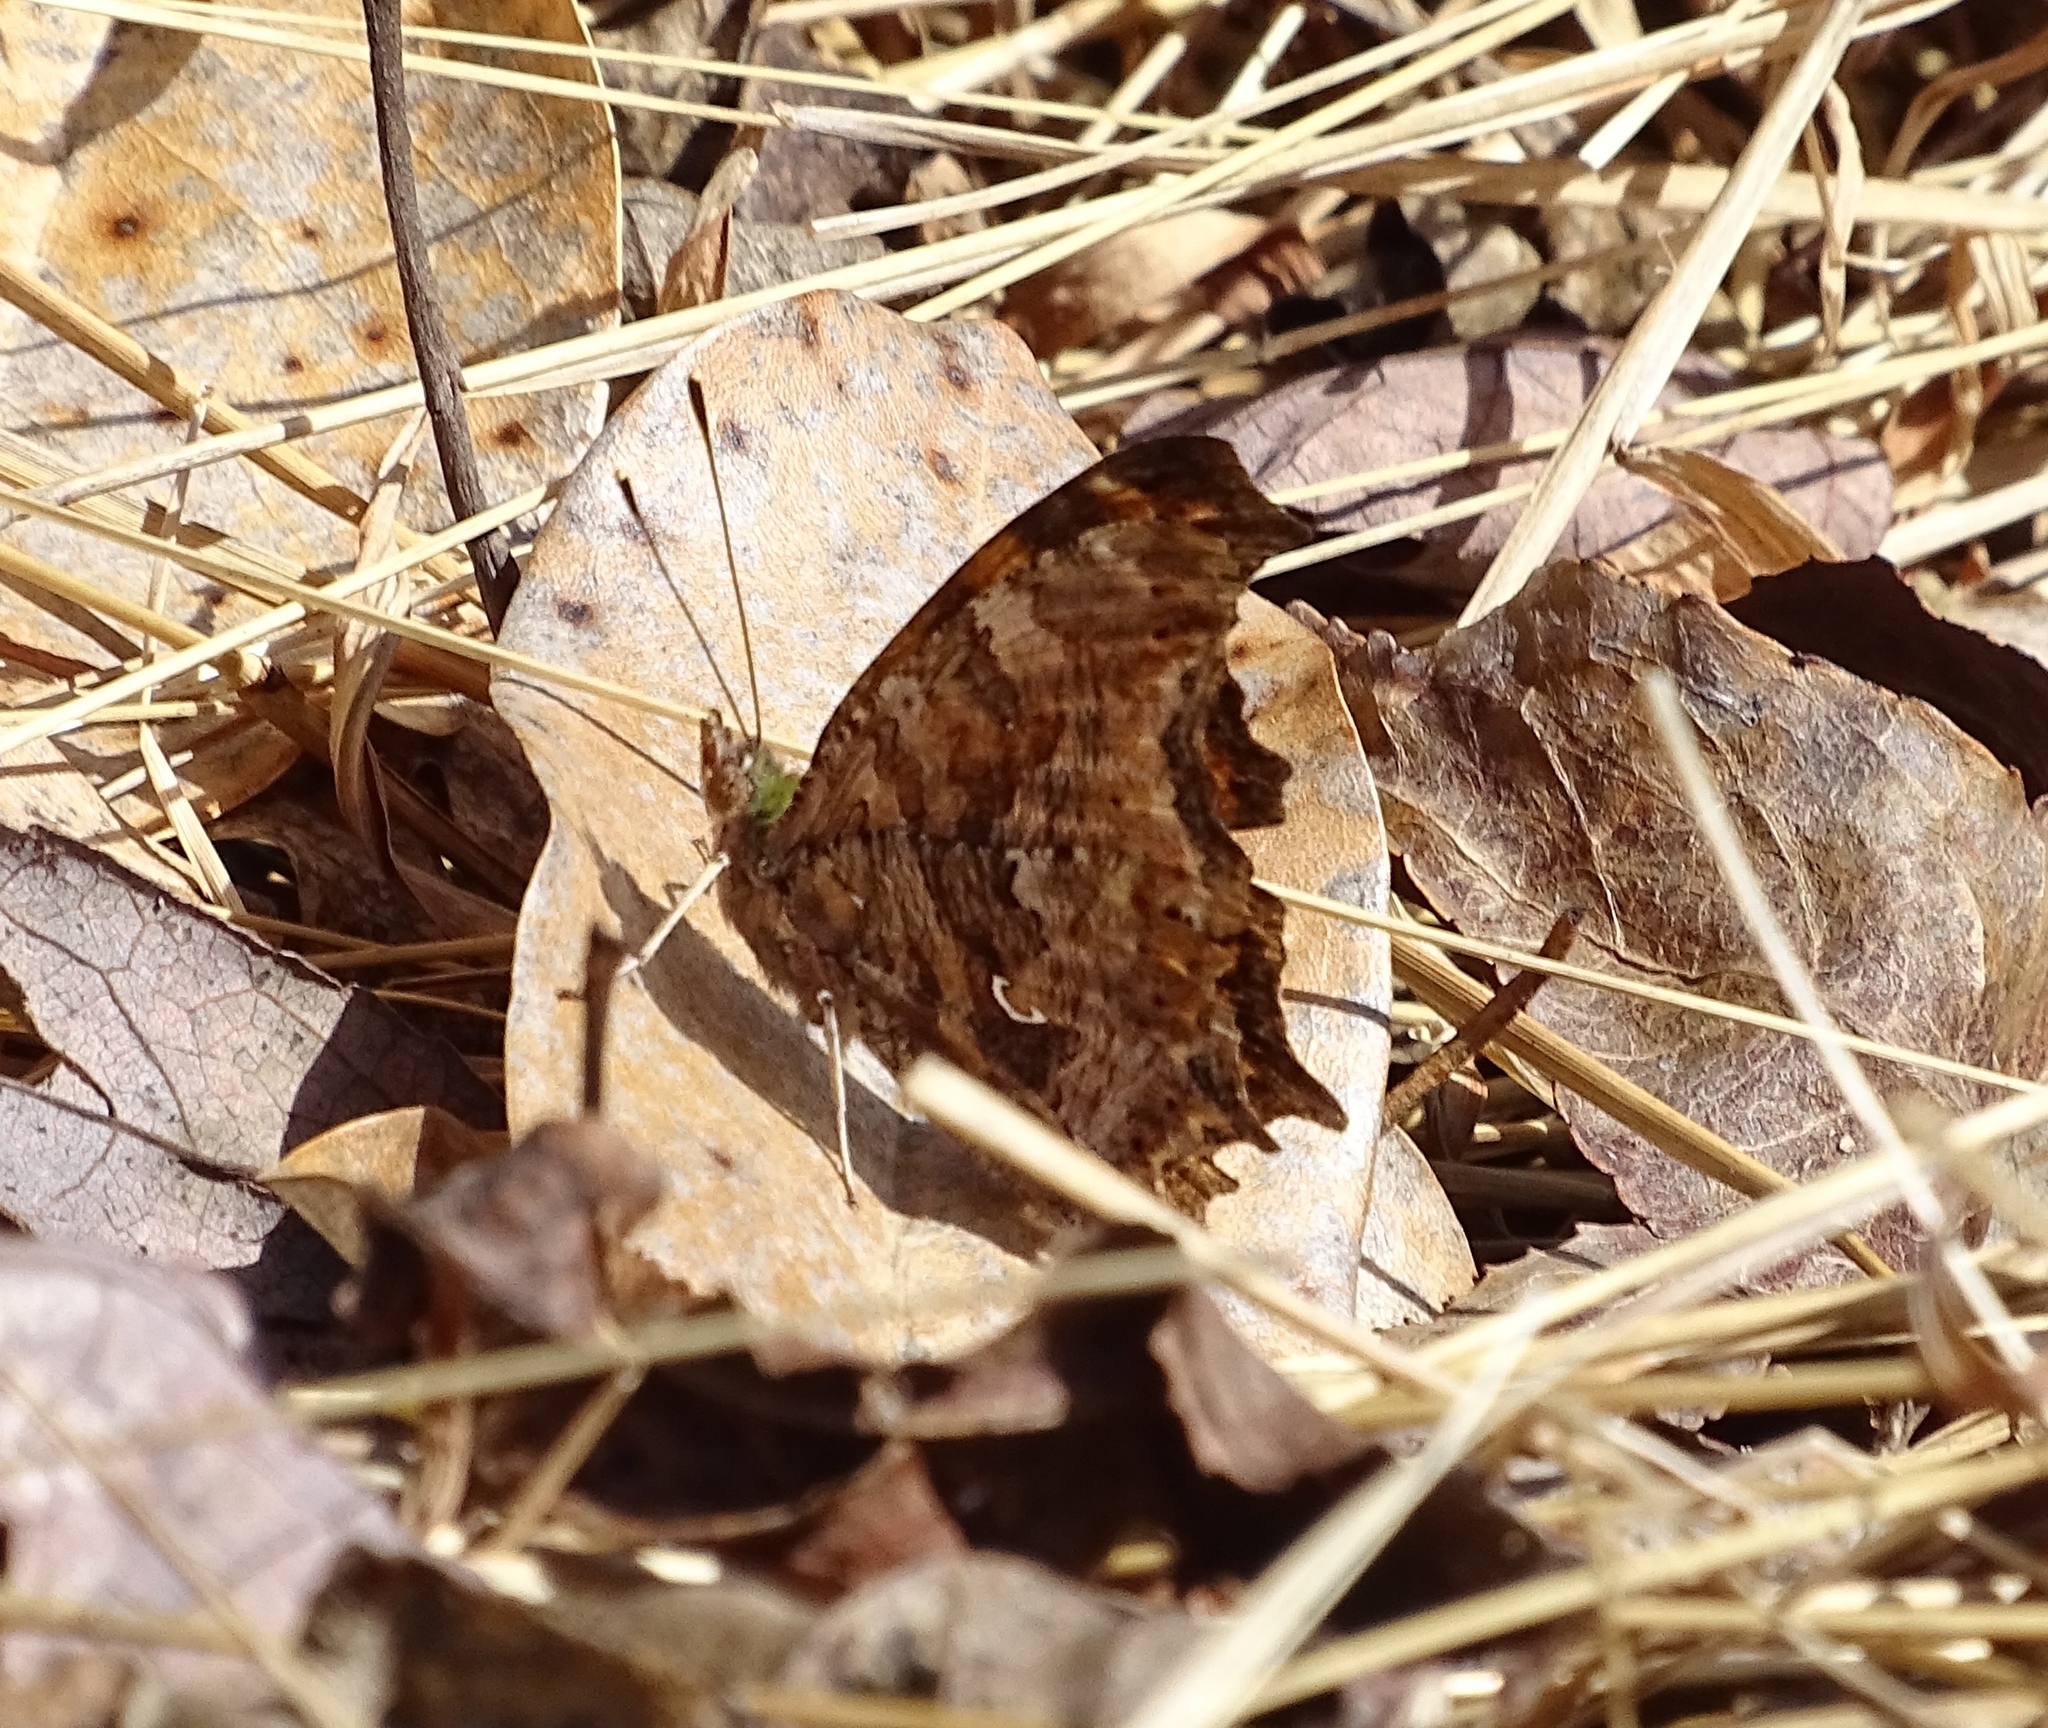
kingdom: Animalia
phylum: Arthropoda
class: Insecta
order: Lepidoptera
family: Nymphalidae
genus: Polygonia
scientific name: Polygonia comma
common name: Eastern comma
